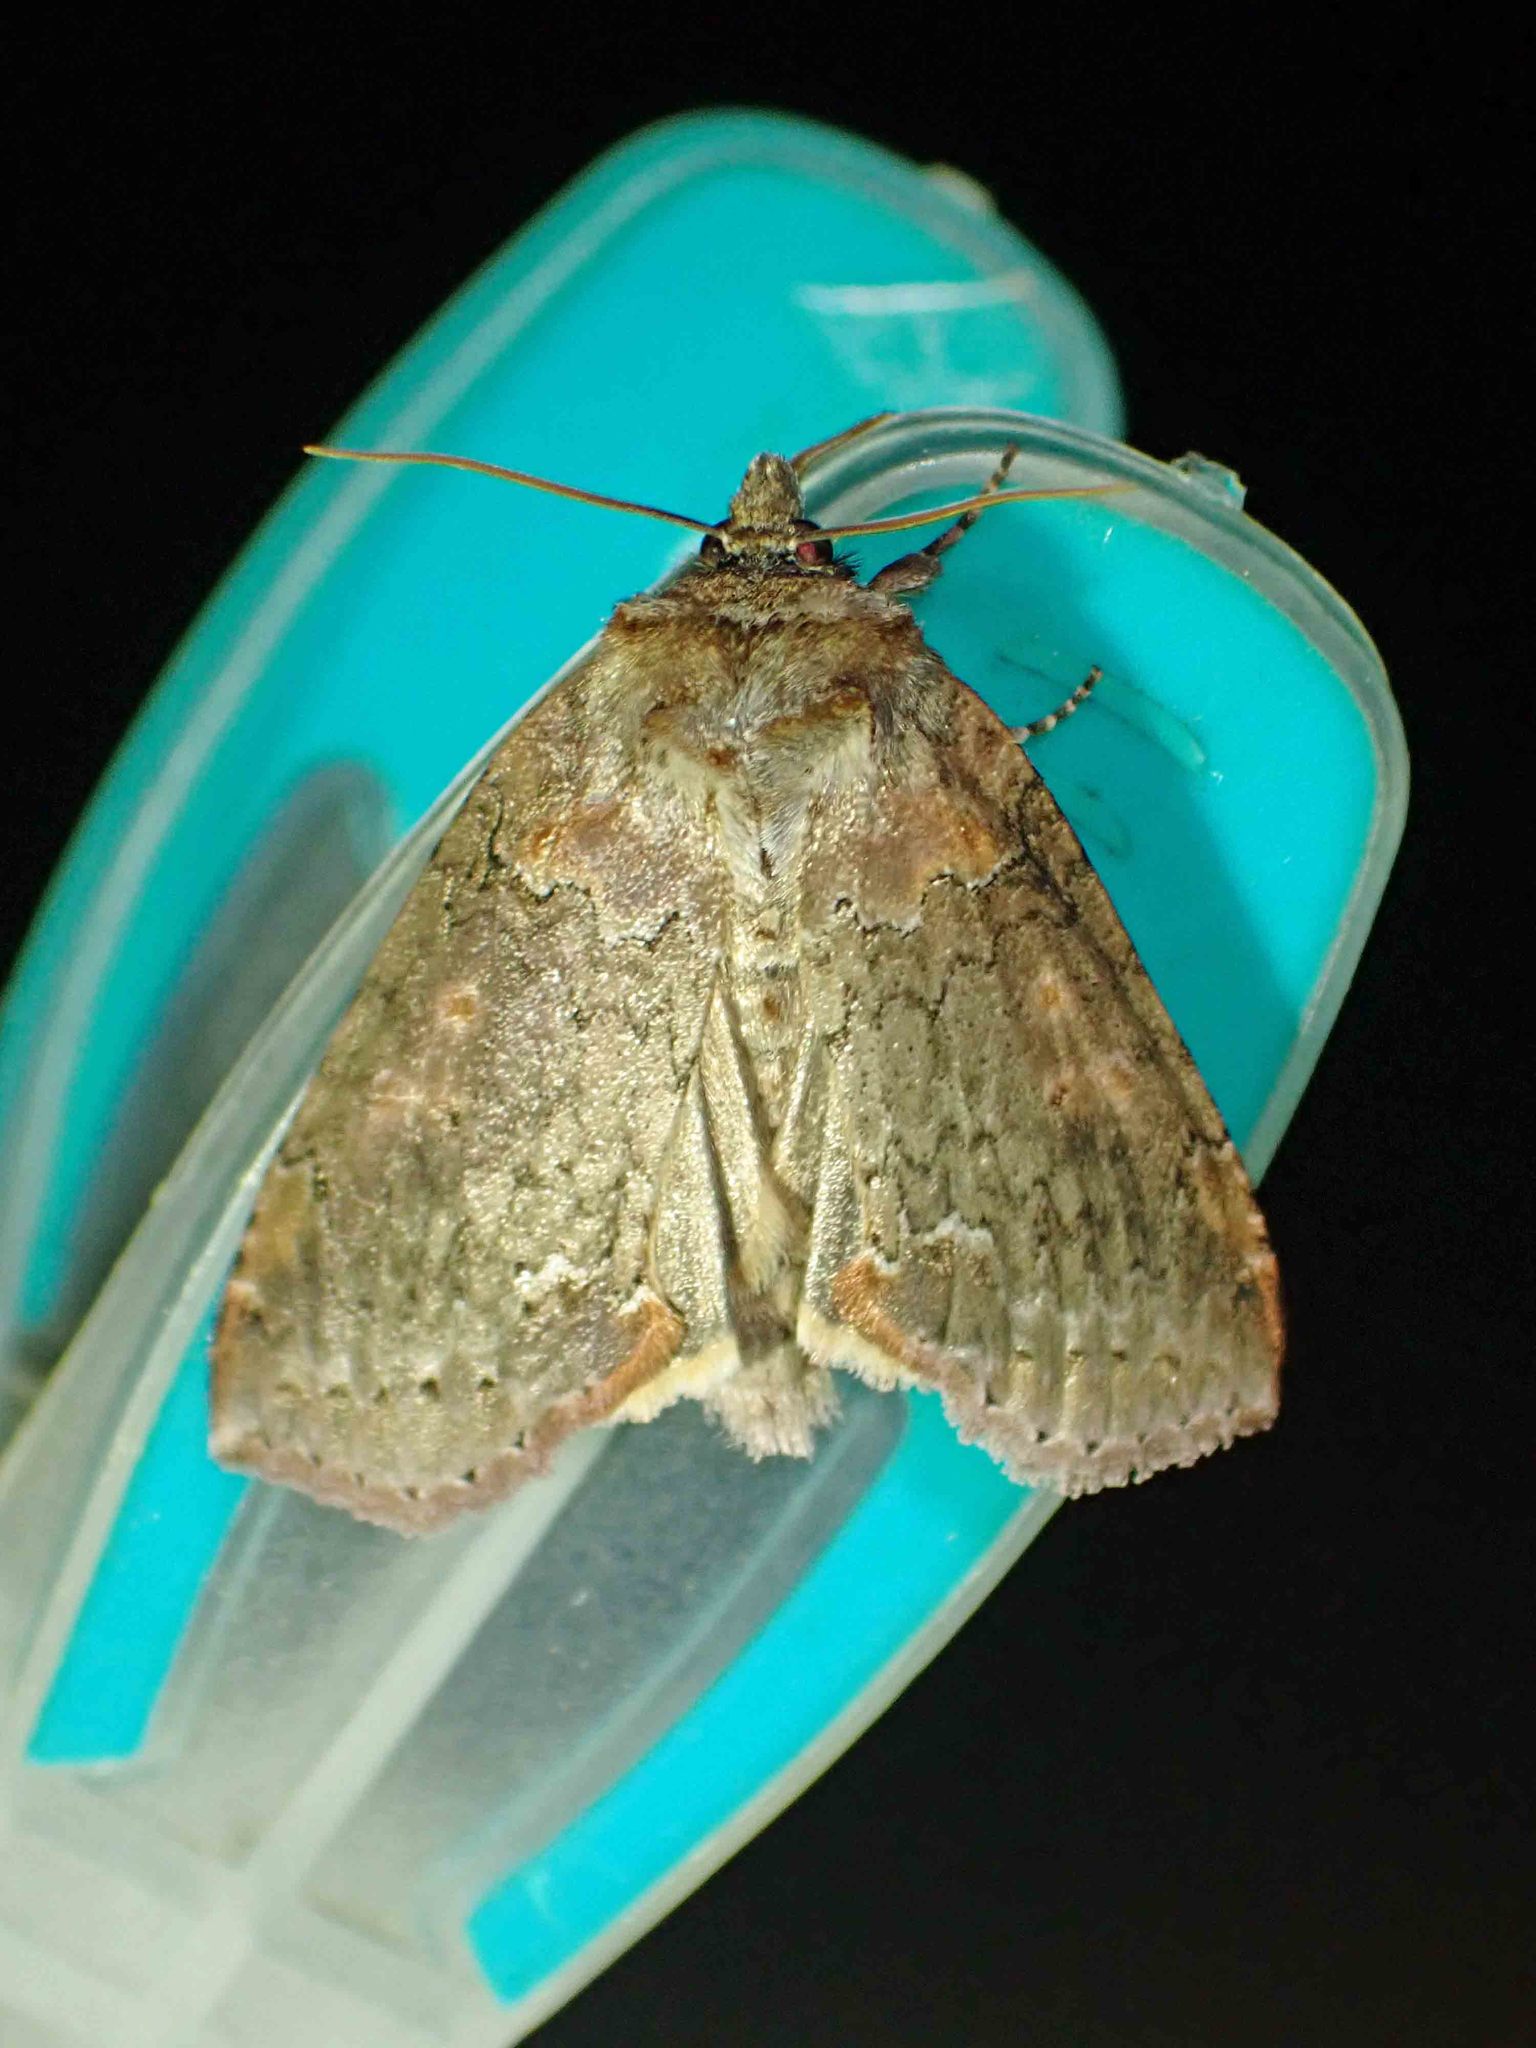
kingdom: Animalia
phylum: Arthropoda
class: Insecta
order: Lepidoptera
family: Drepanidae
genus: Pseudothyatira
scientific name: Pseudothyatira cymatophoroides
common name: Tufted thyatirid moth
